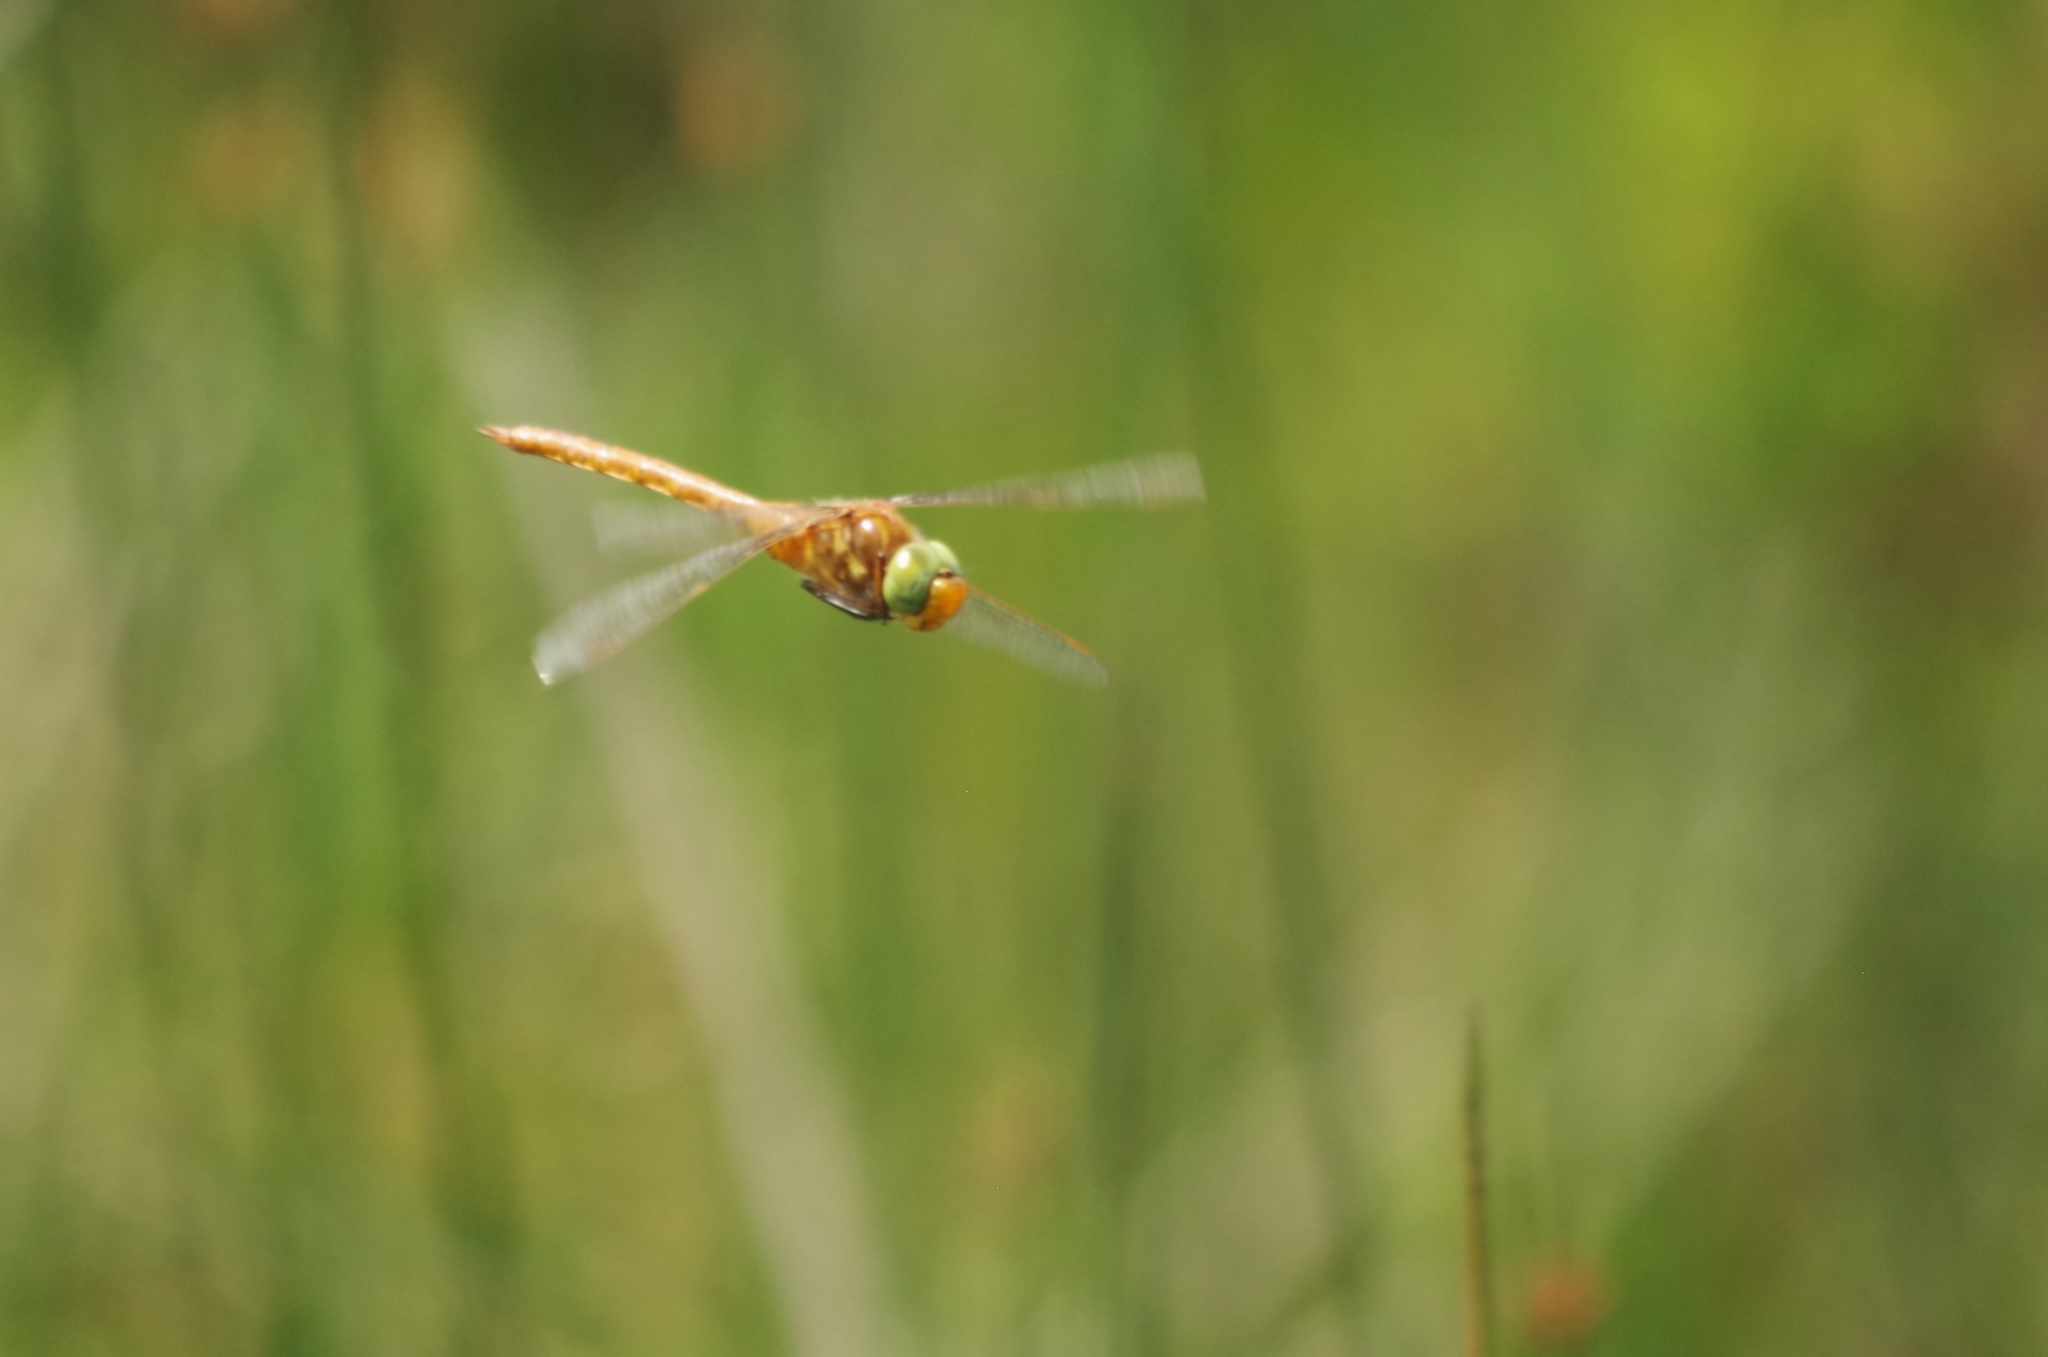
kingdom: Animalia
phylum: Arthropoda
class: Insecta
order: Odonata
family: Aeshnidae
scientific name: Aeshnidae
